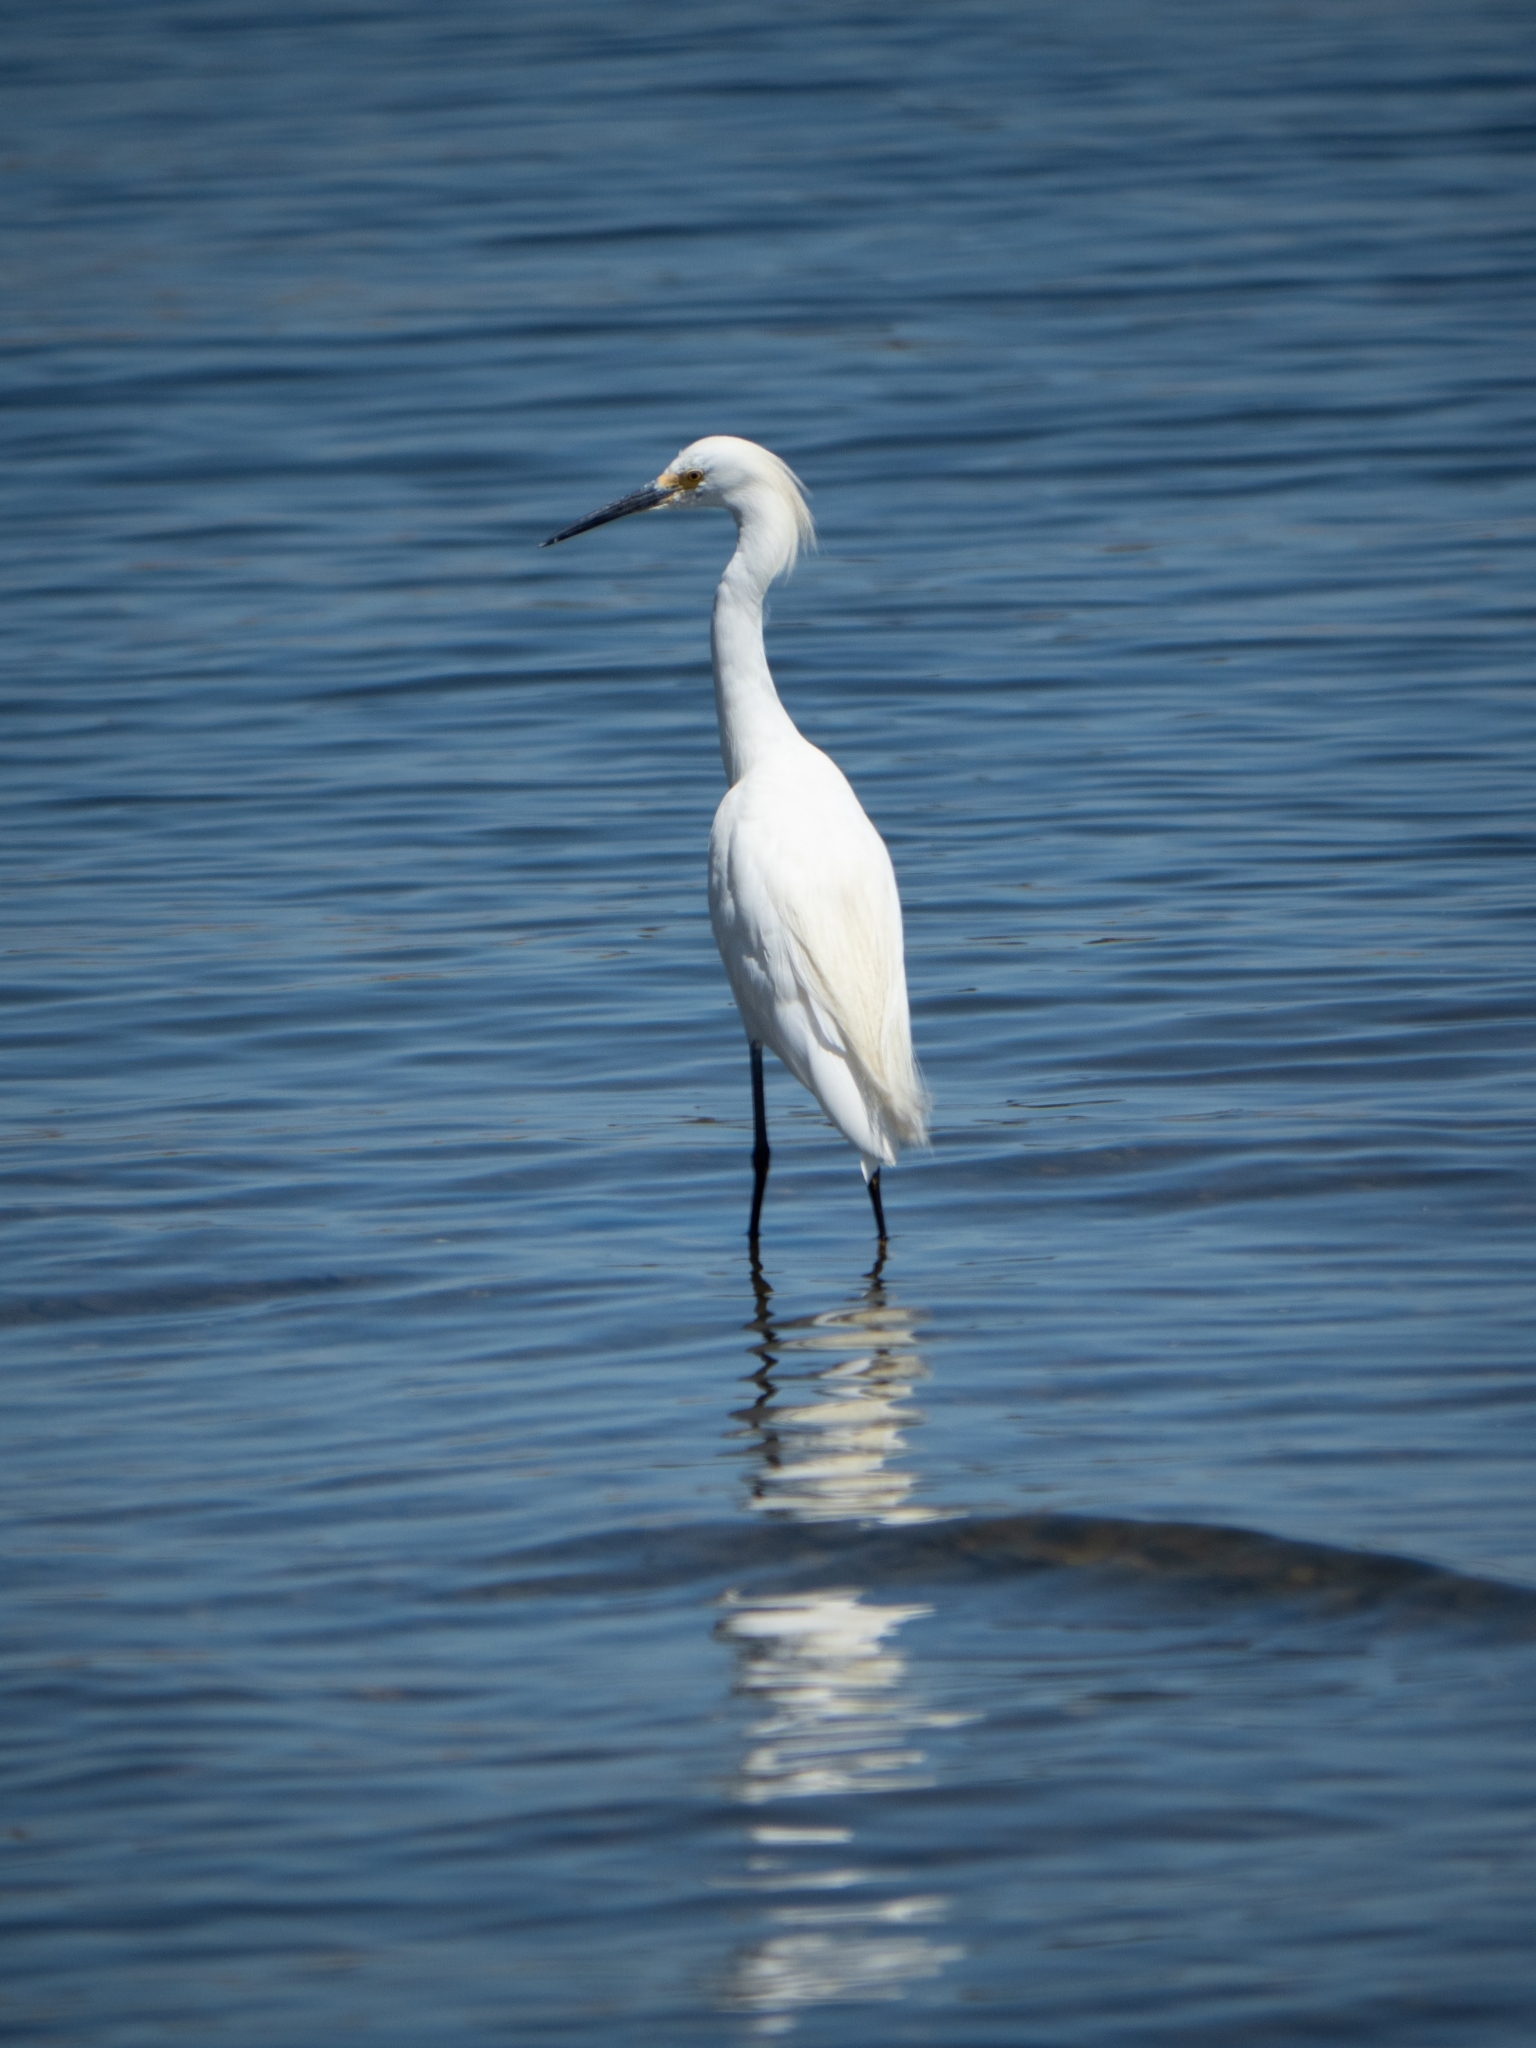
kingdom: Animalia
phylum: Chordata
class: Aves
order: Pelecaniformes
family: Ardeidae
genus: Egretta
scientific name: Egretta thula
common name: Snowy egret
